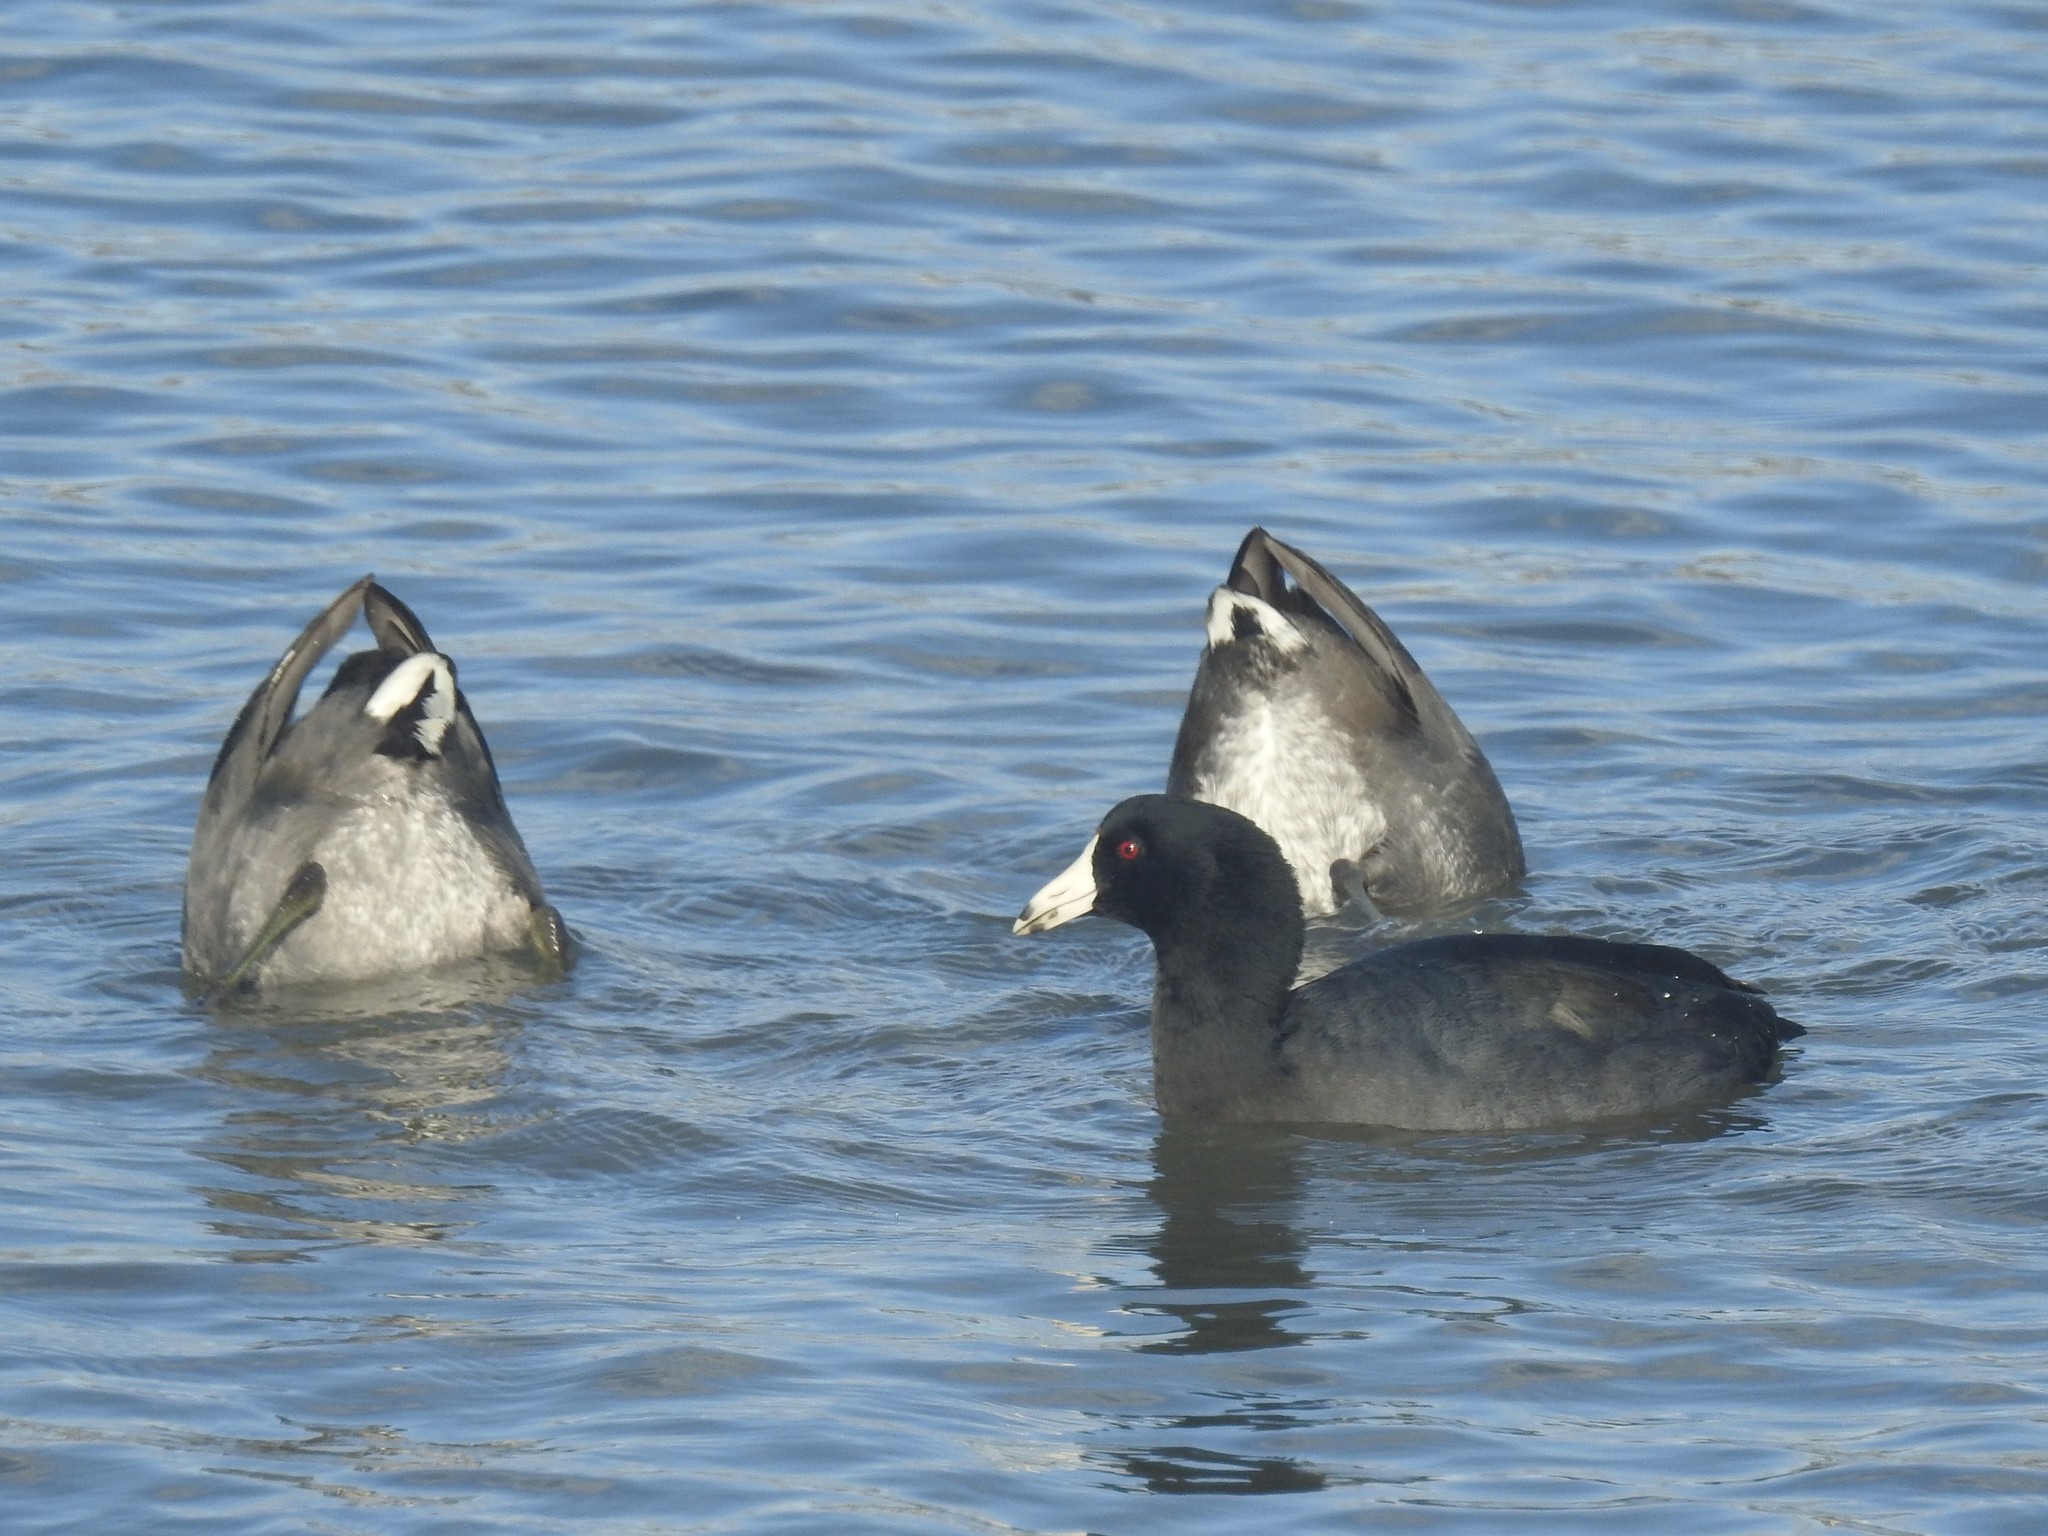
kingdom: Animalia
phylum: Chordata
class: Aves
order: Gruiformes
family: Rallidae
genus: Fulica
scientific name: Fulica americana
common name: American coot
